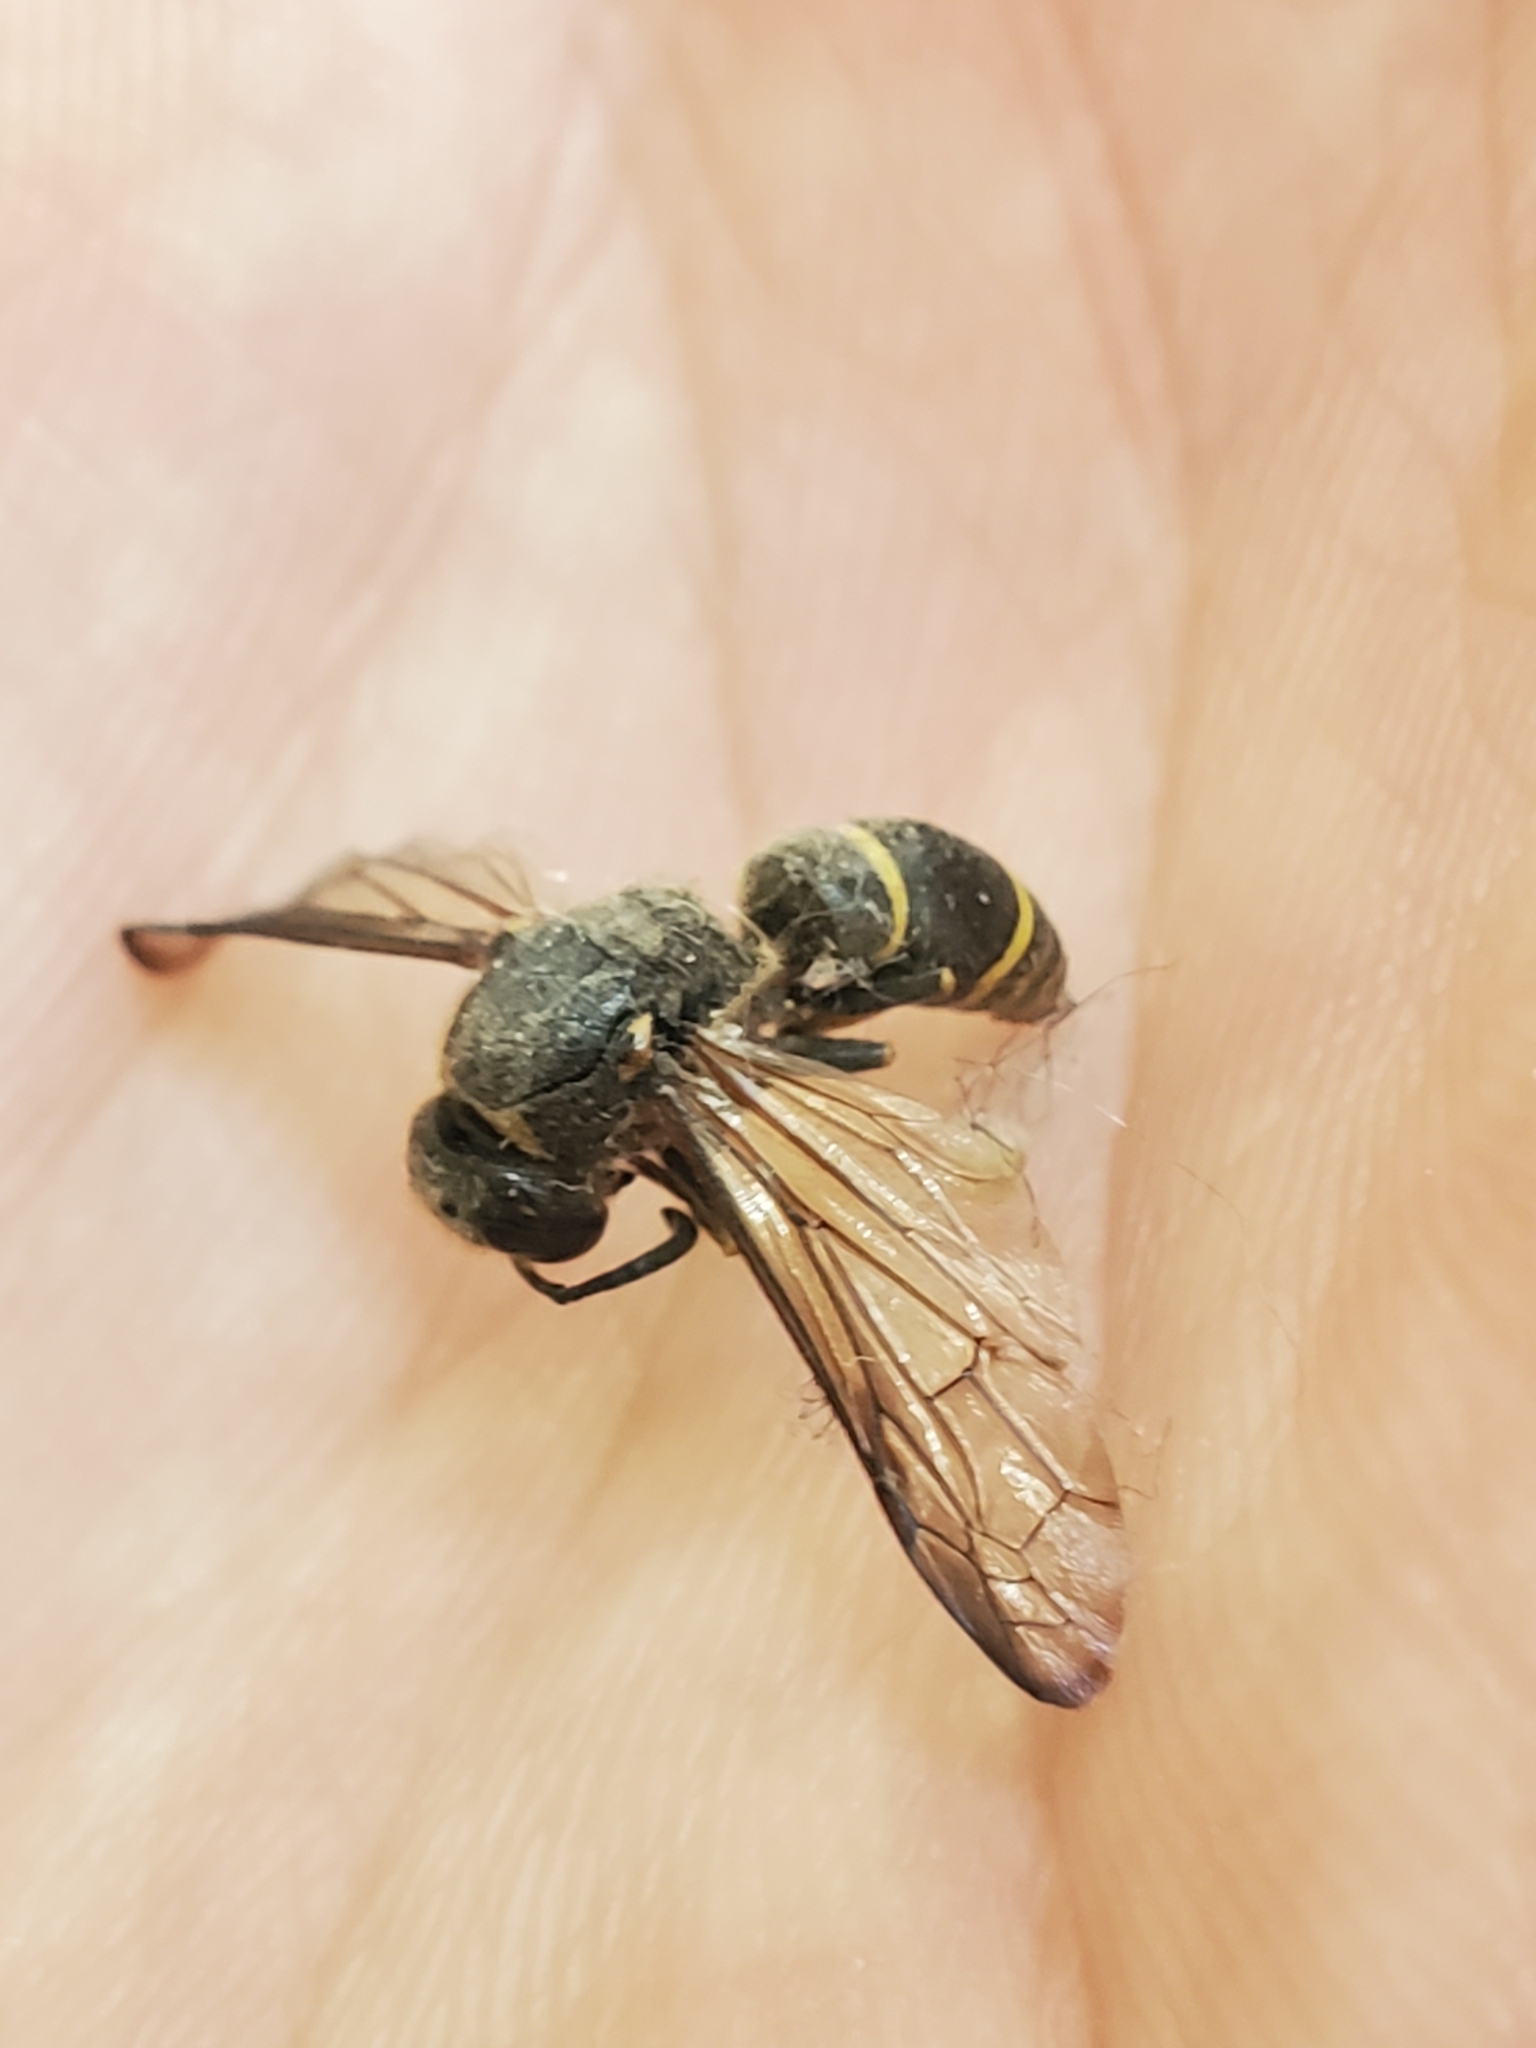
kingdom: Animalia
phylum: Arthropoda
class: Insecta
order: Hymenoptera
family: Vespidae
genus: Ancistrocerus
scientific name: Ancistrocerus
